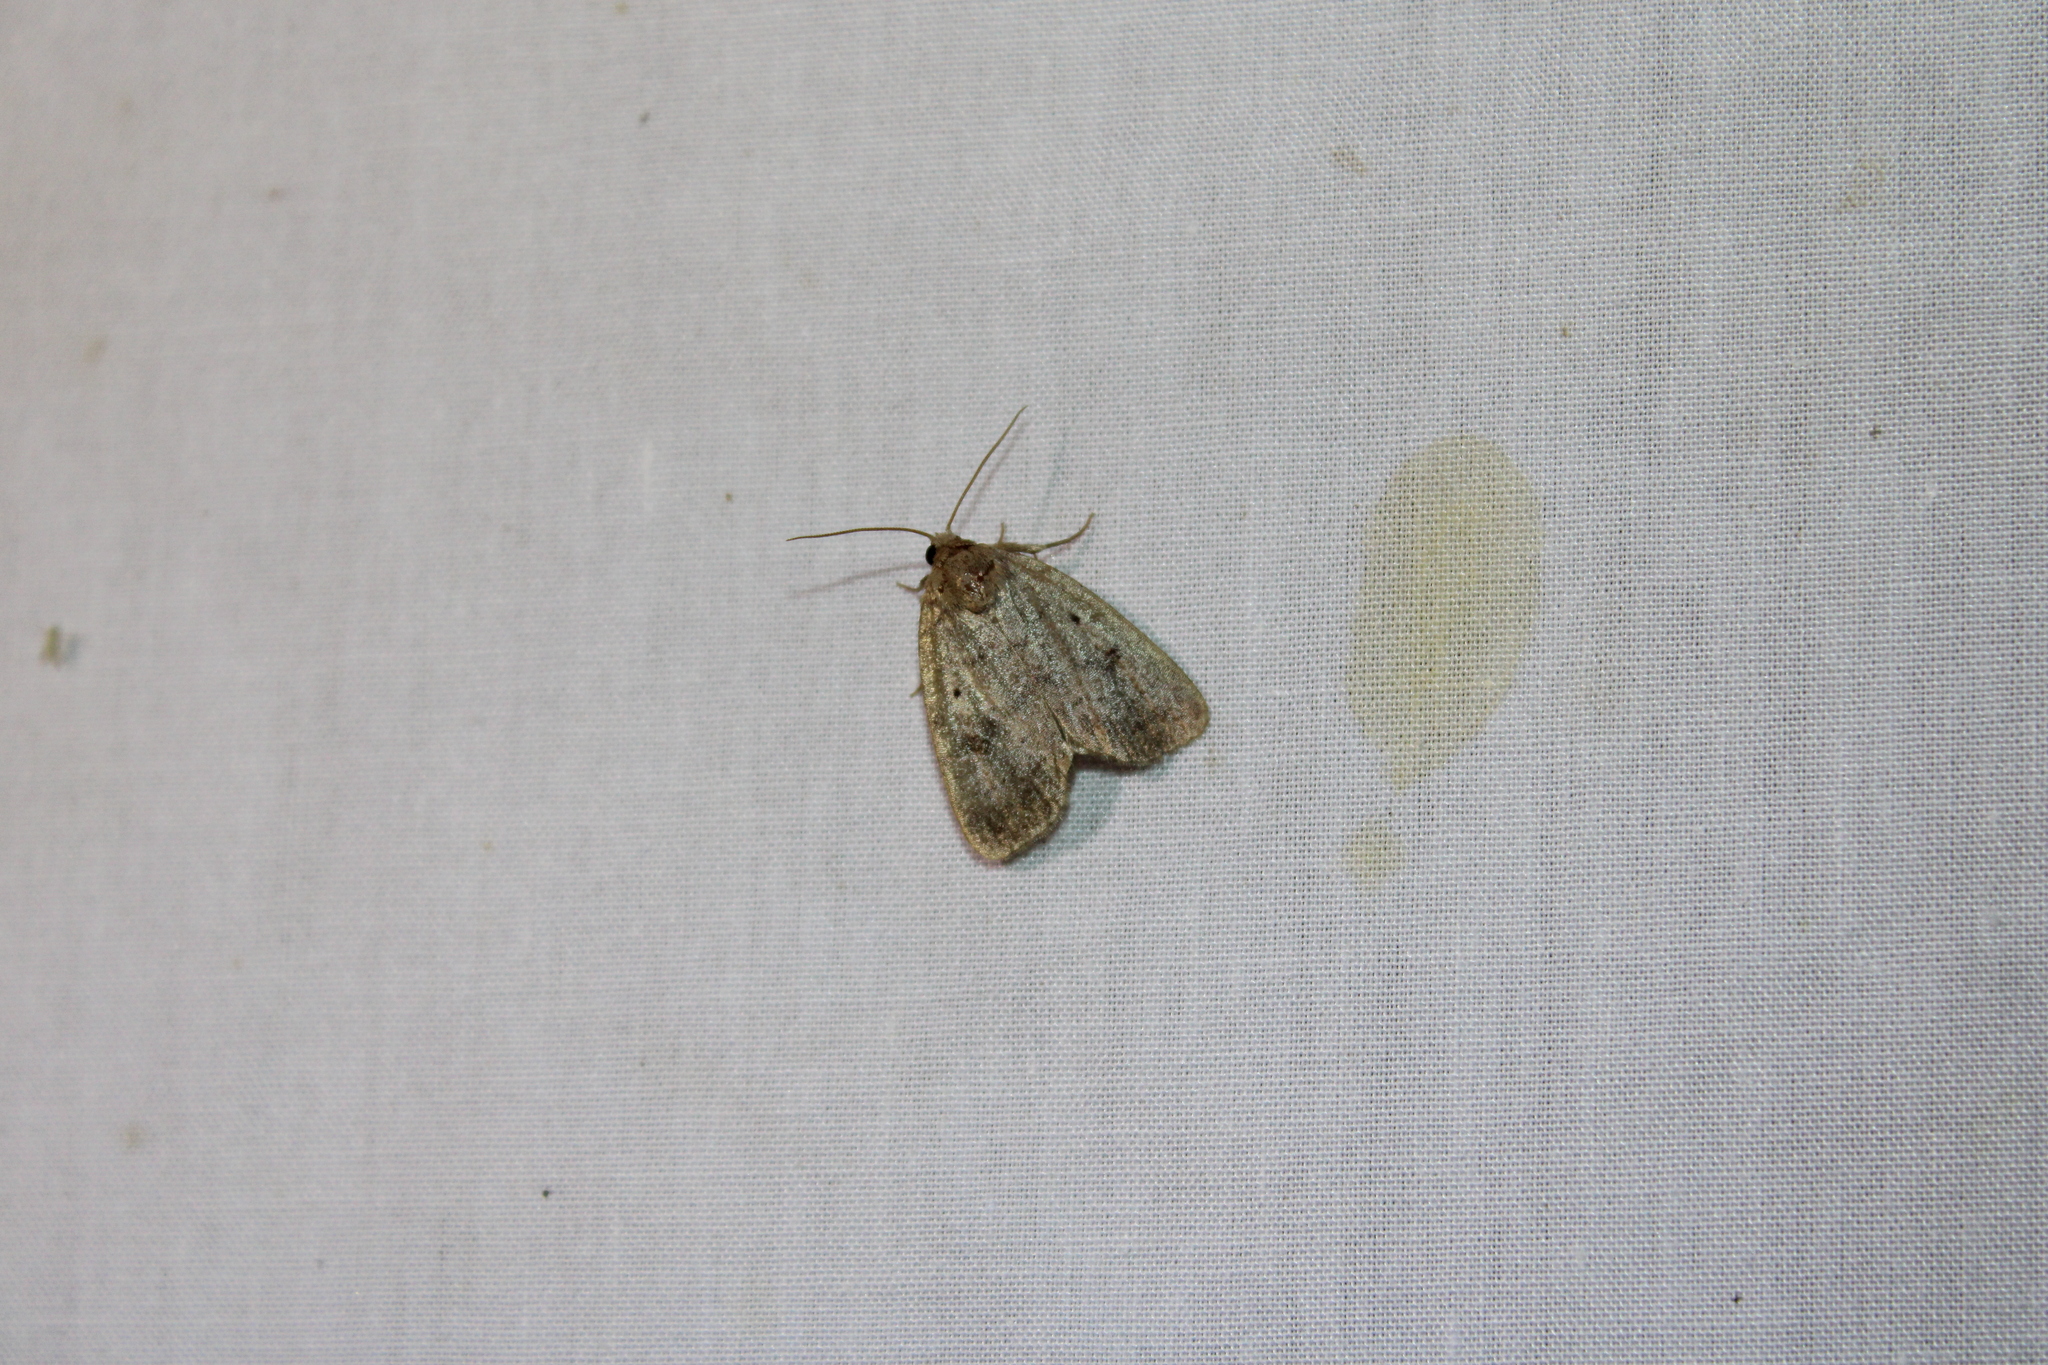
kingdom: Animalia
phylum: Arthropoda
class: Insecta
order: Lepidoptera
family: Noctuidae
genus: Athetis
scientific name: Athetis tarda
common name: Slowpoke moth
